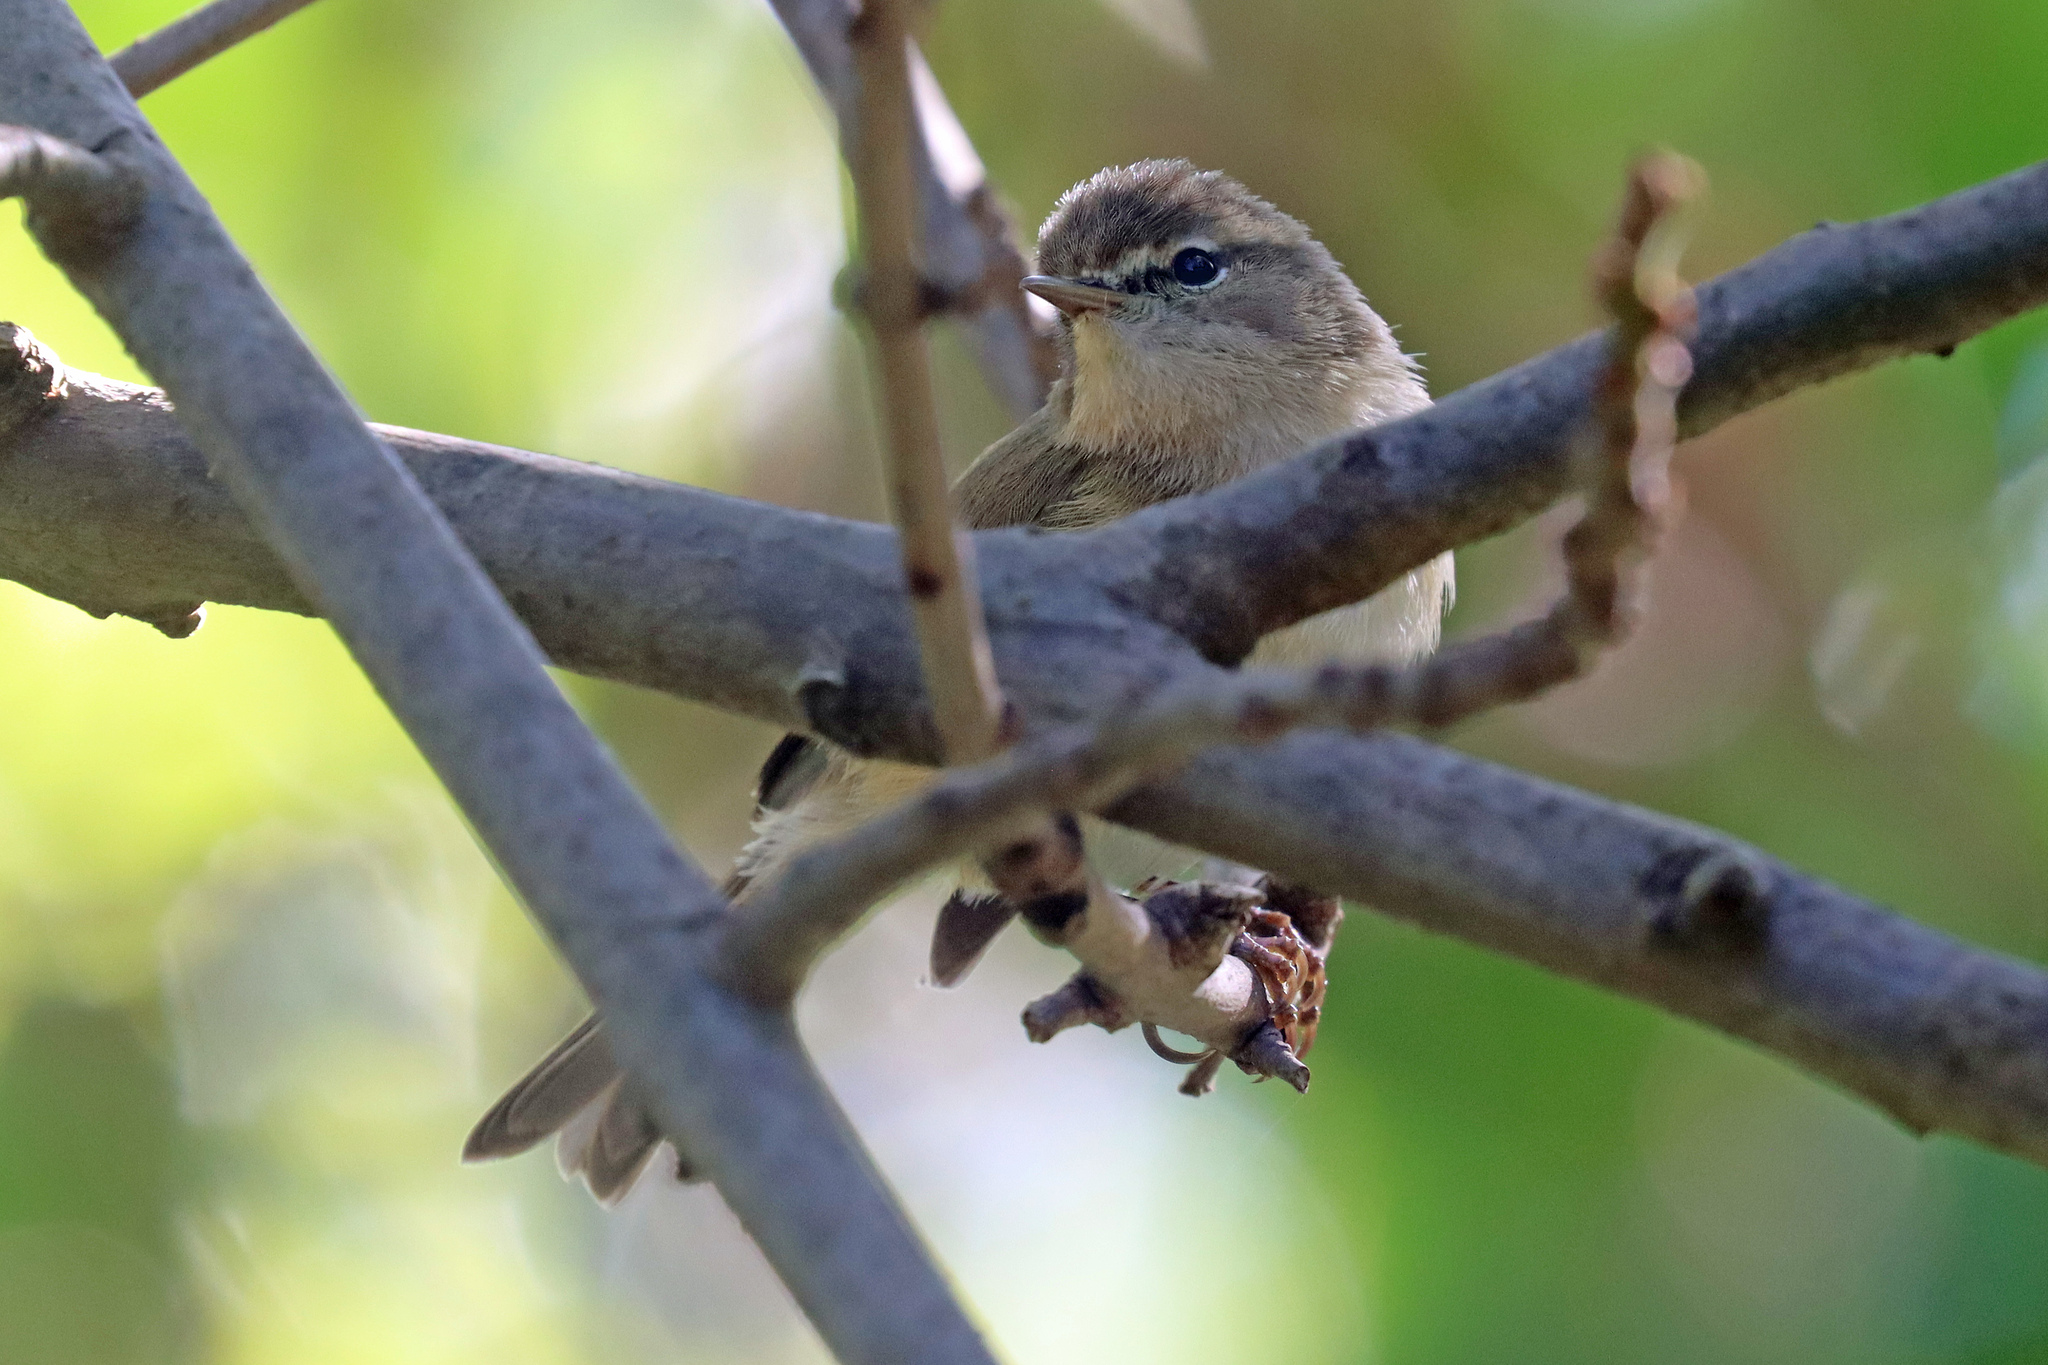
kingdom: Animalia
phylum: Chordata
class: Aves
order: Passeriformes
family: Phylloscopidae
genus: Phylloscopus
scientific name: Phylloscopus canariensis
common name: Canary islands chiffchaff
